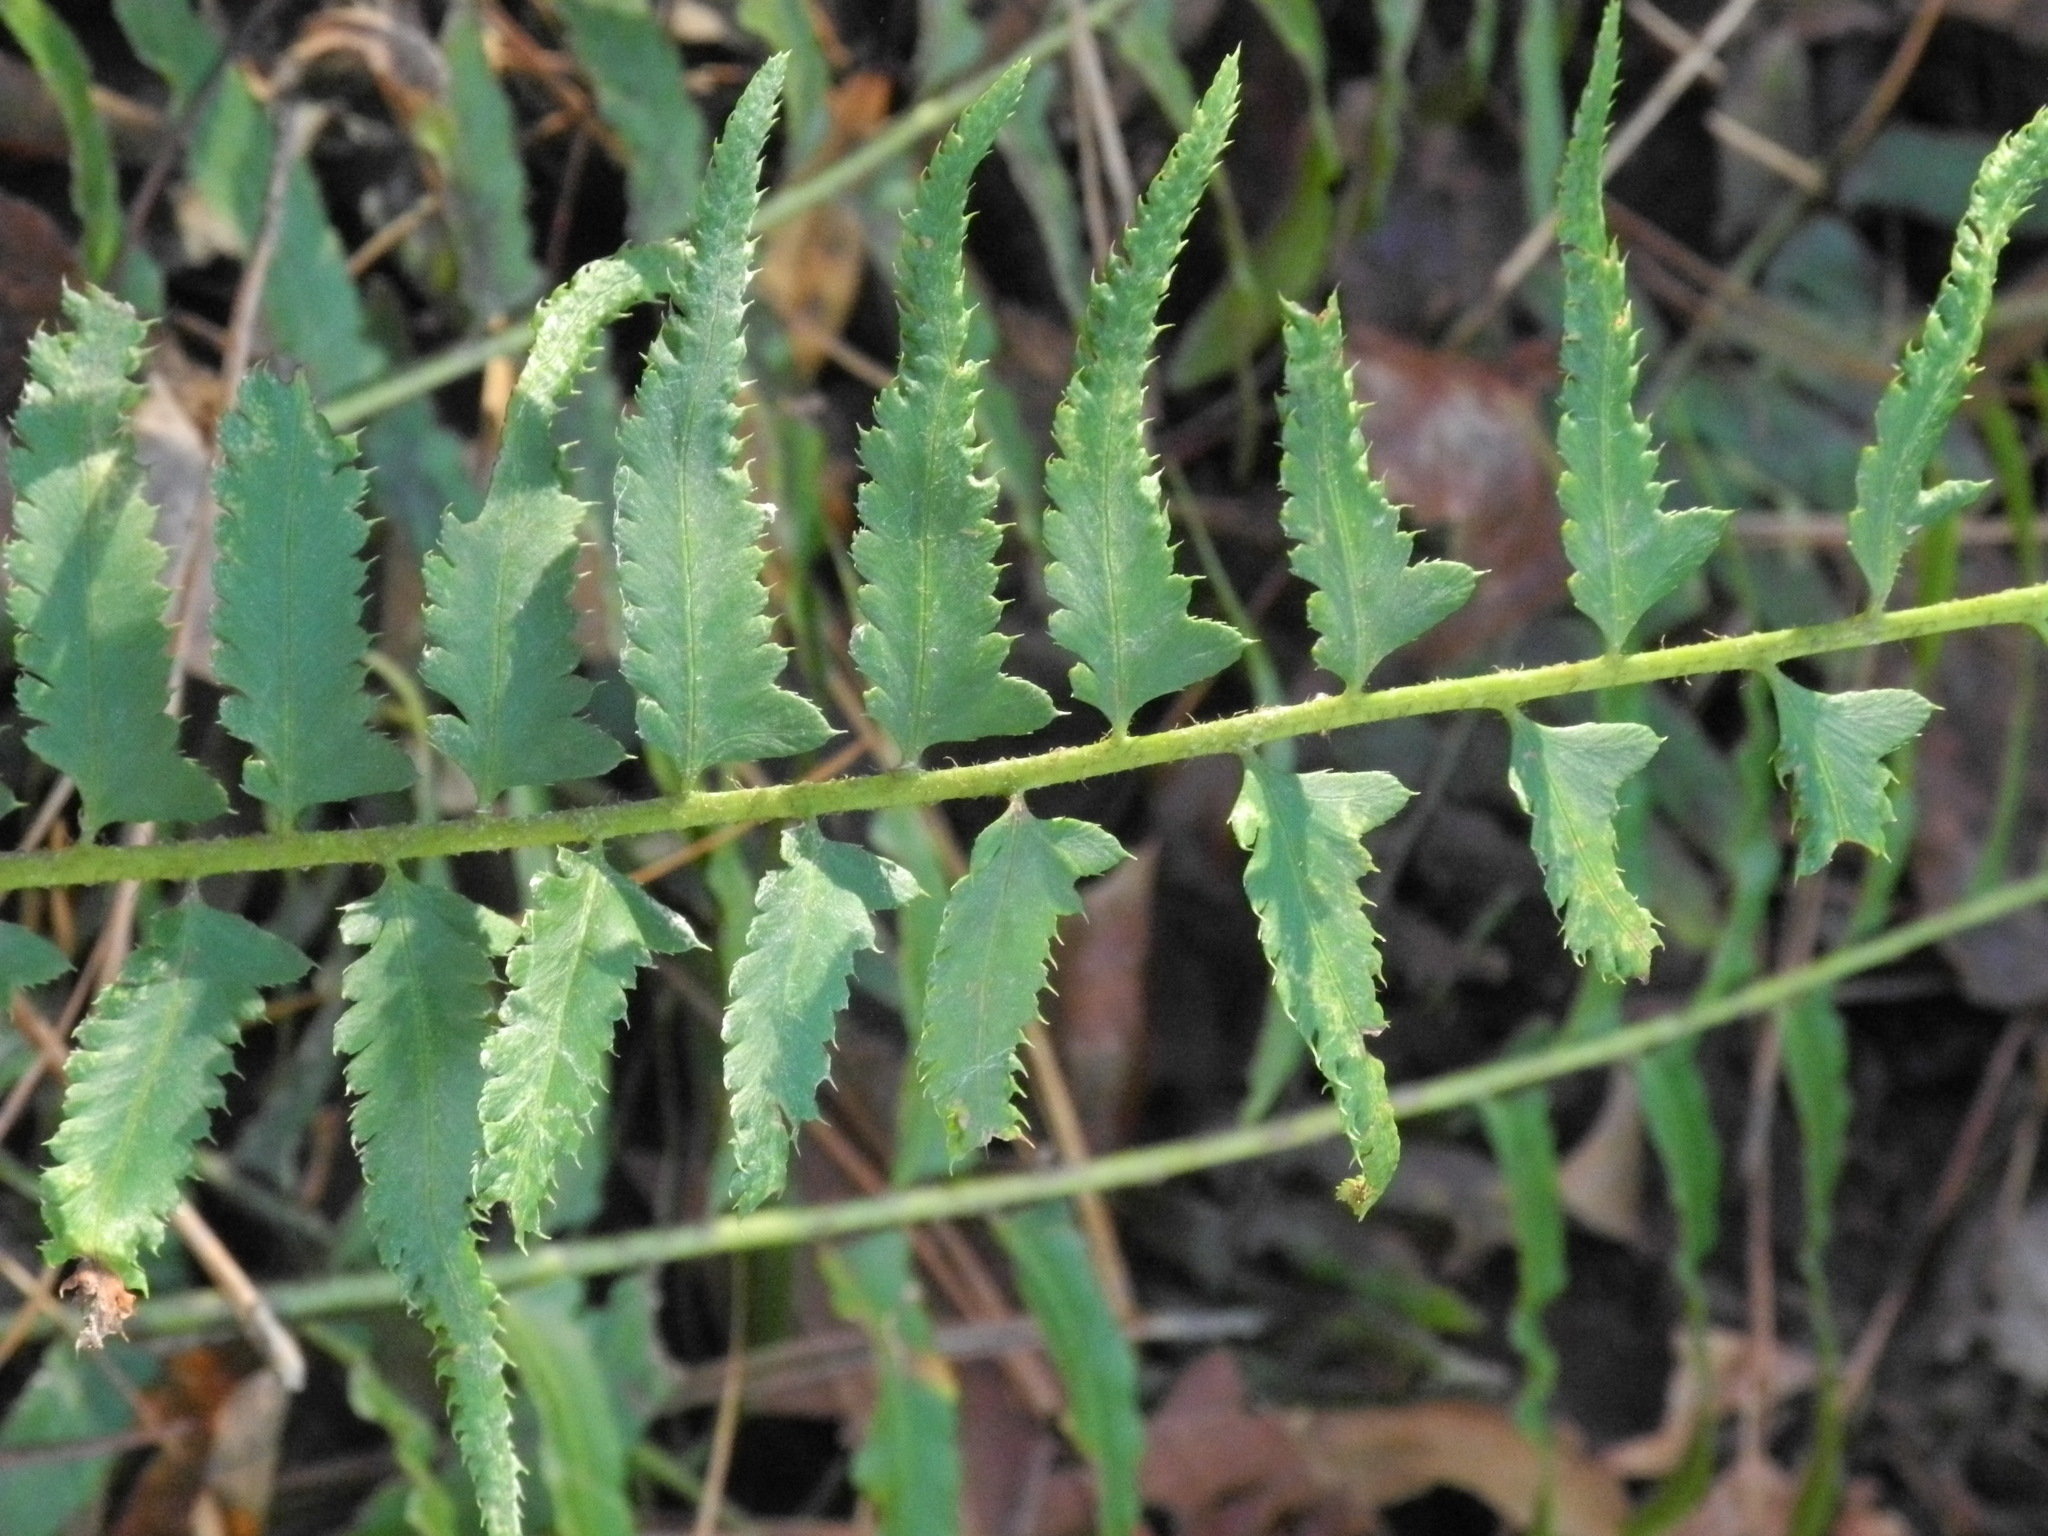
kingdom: Plantae
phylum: Tracheophyta
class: Polypodiopsida
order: Polypodiales
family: Dryopteridaceae
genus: Polystichum
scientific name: Polystichum acrostichoides
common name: Christmas fern
